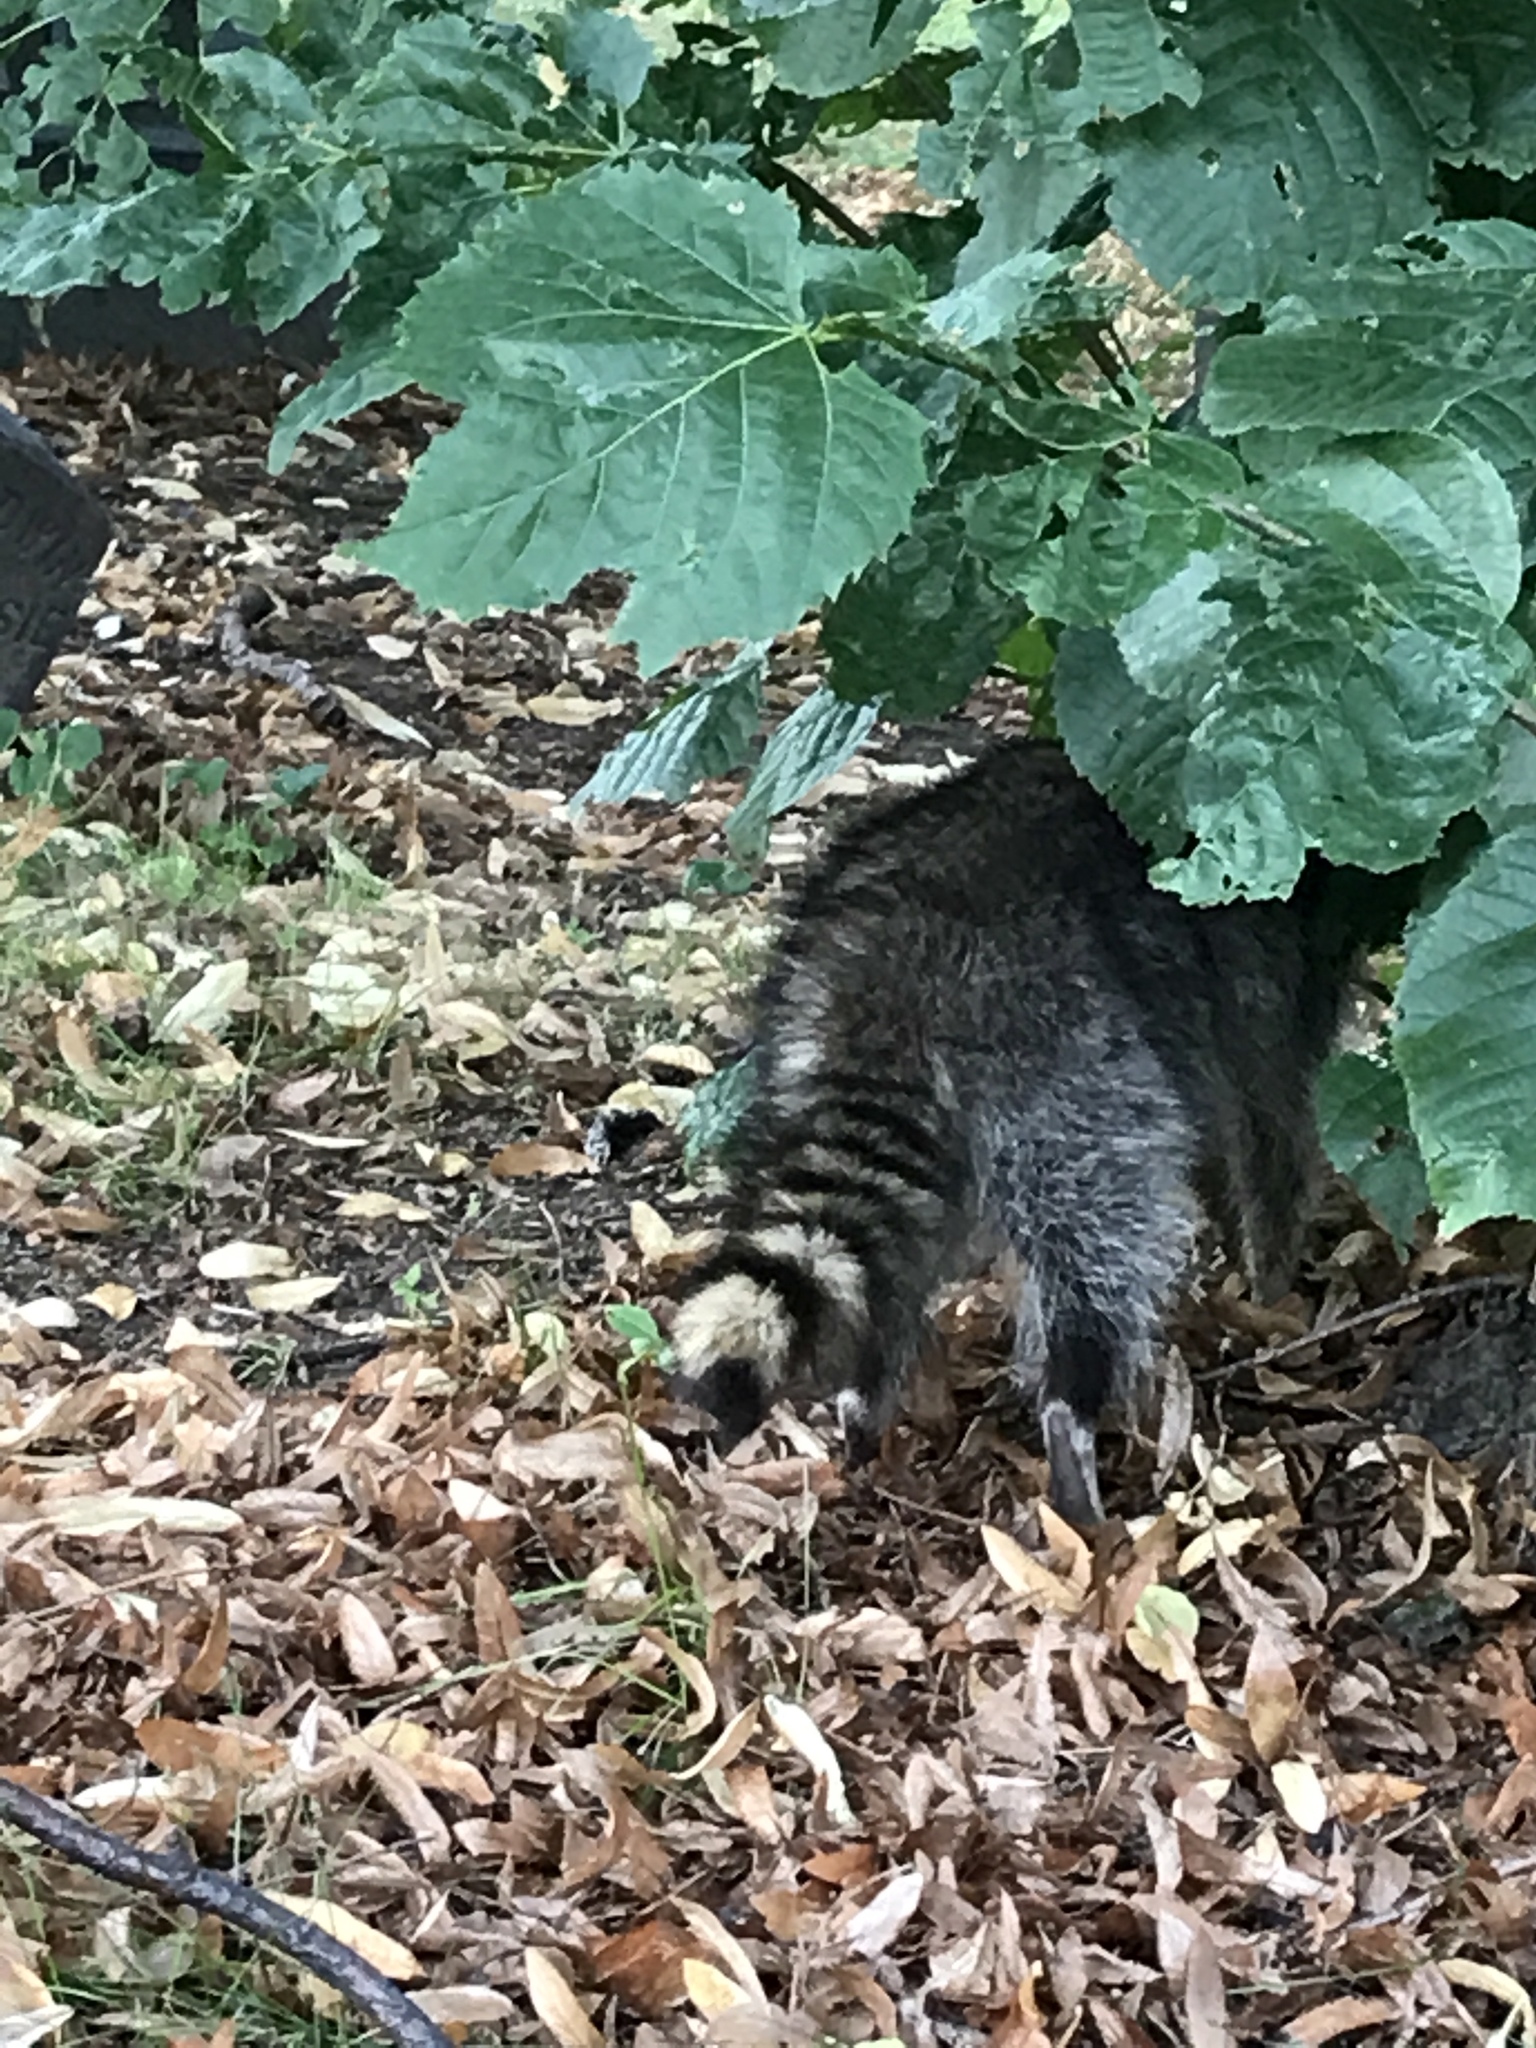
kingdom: Animalia
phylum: Chordata
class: Mammalia
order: Carnivora
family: Procyonidae
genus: Procyon
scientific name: Procyon lotor
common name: Raccoon
